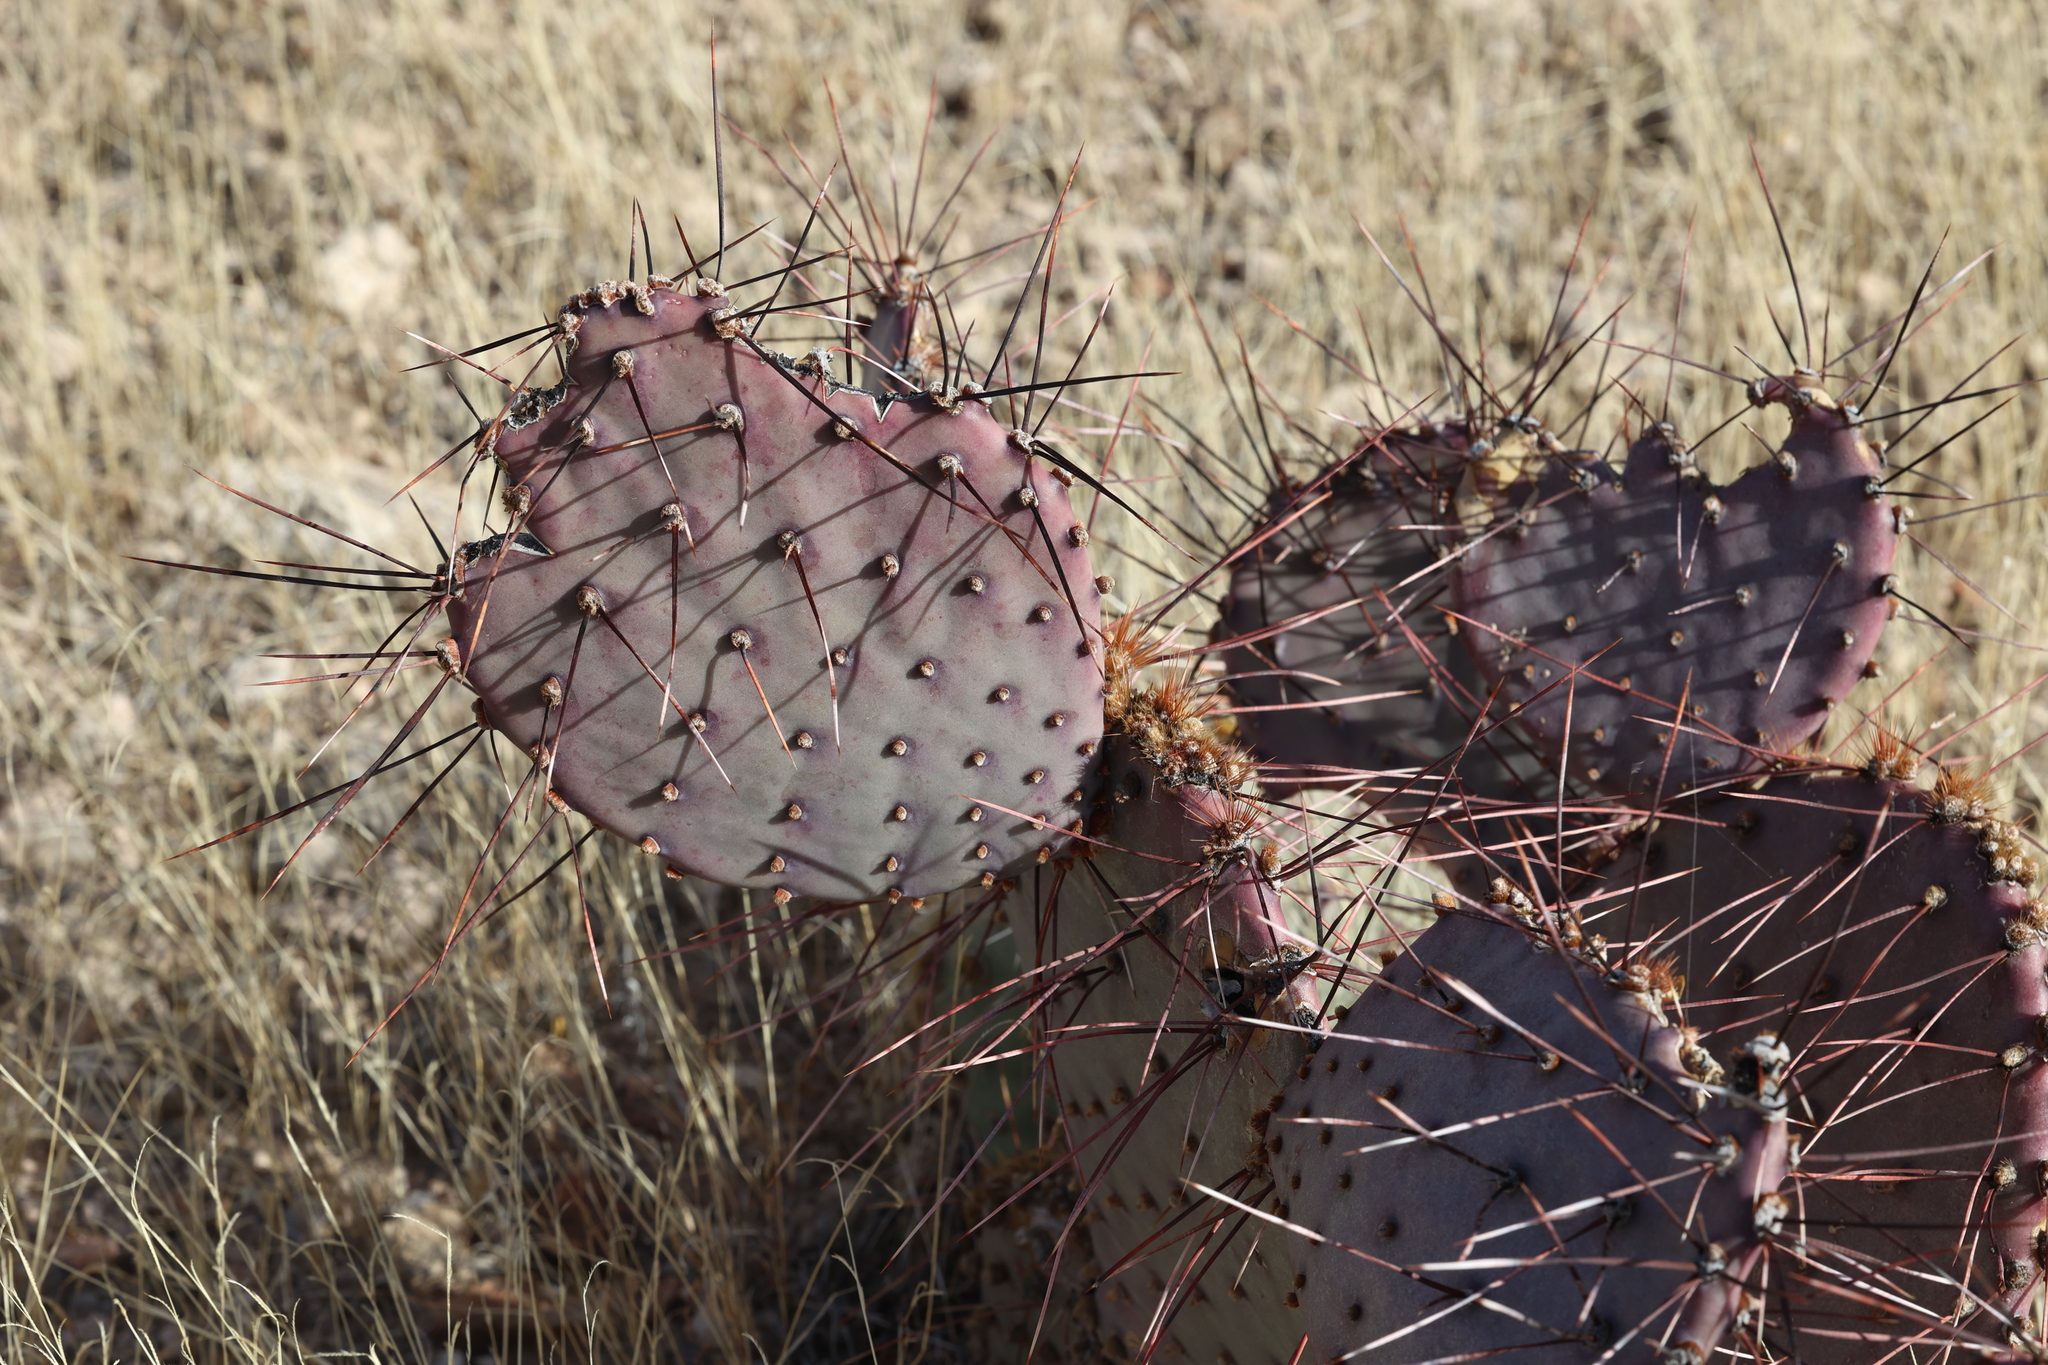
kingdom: Plantae
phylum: Tracheophyta
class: Magnoliopsida
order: Caryophyllales
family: Cactaceae
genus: Opuntia
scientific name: Opuntia macrocentra
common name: Purple prickly-pear
